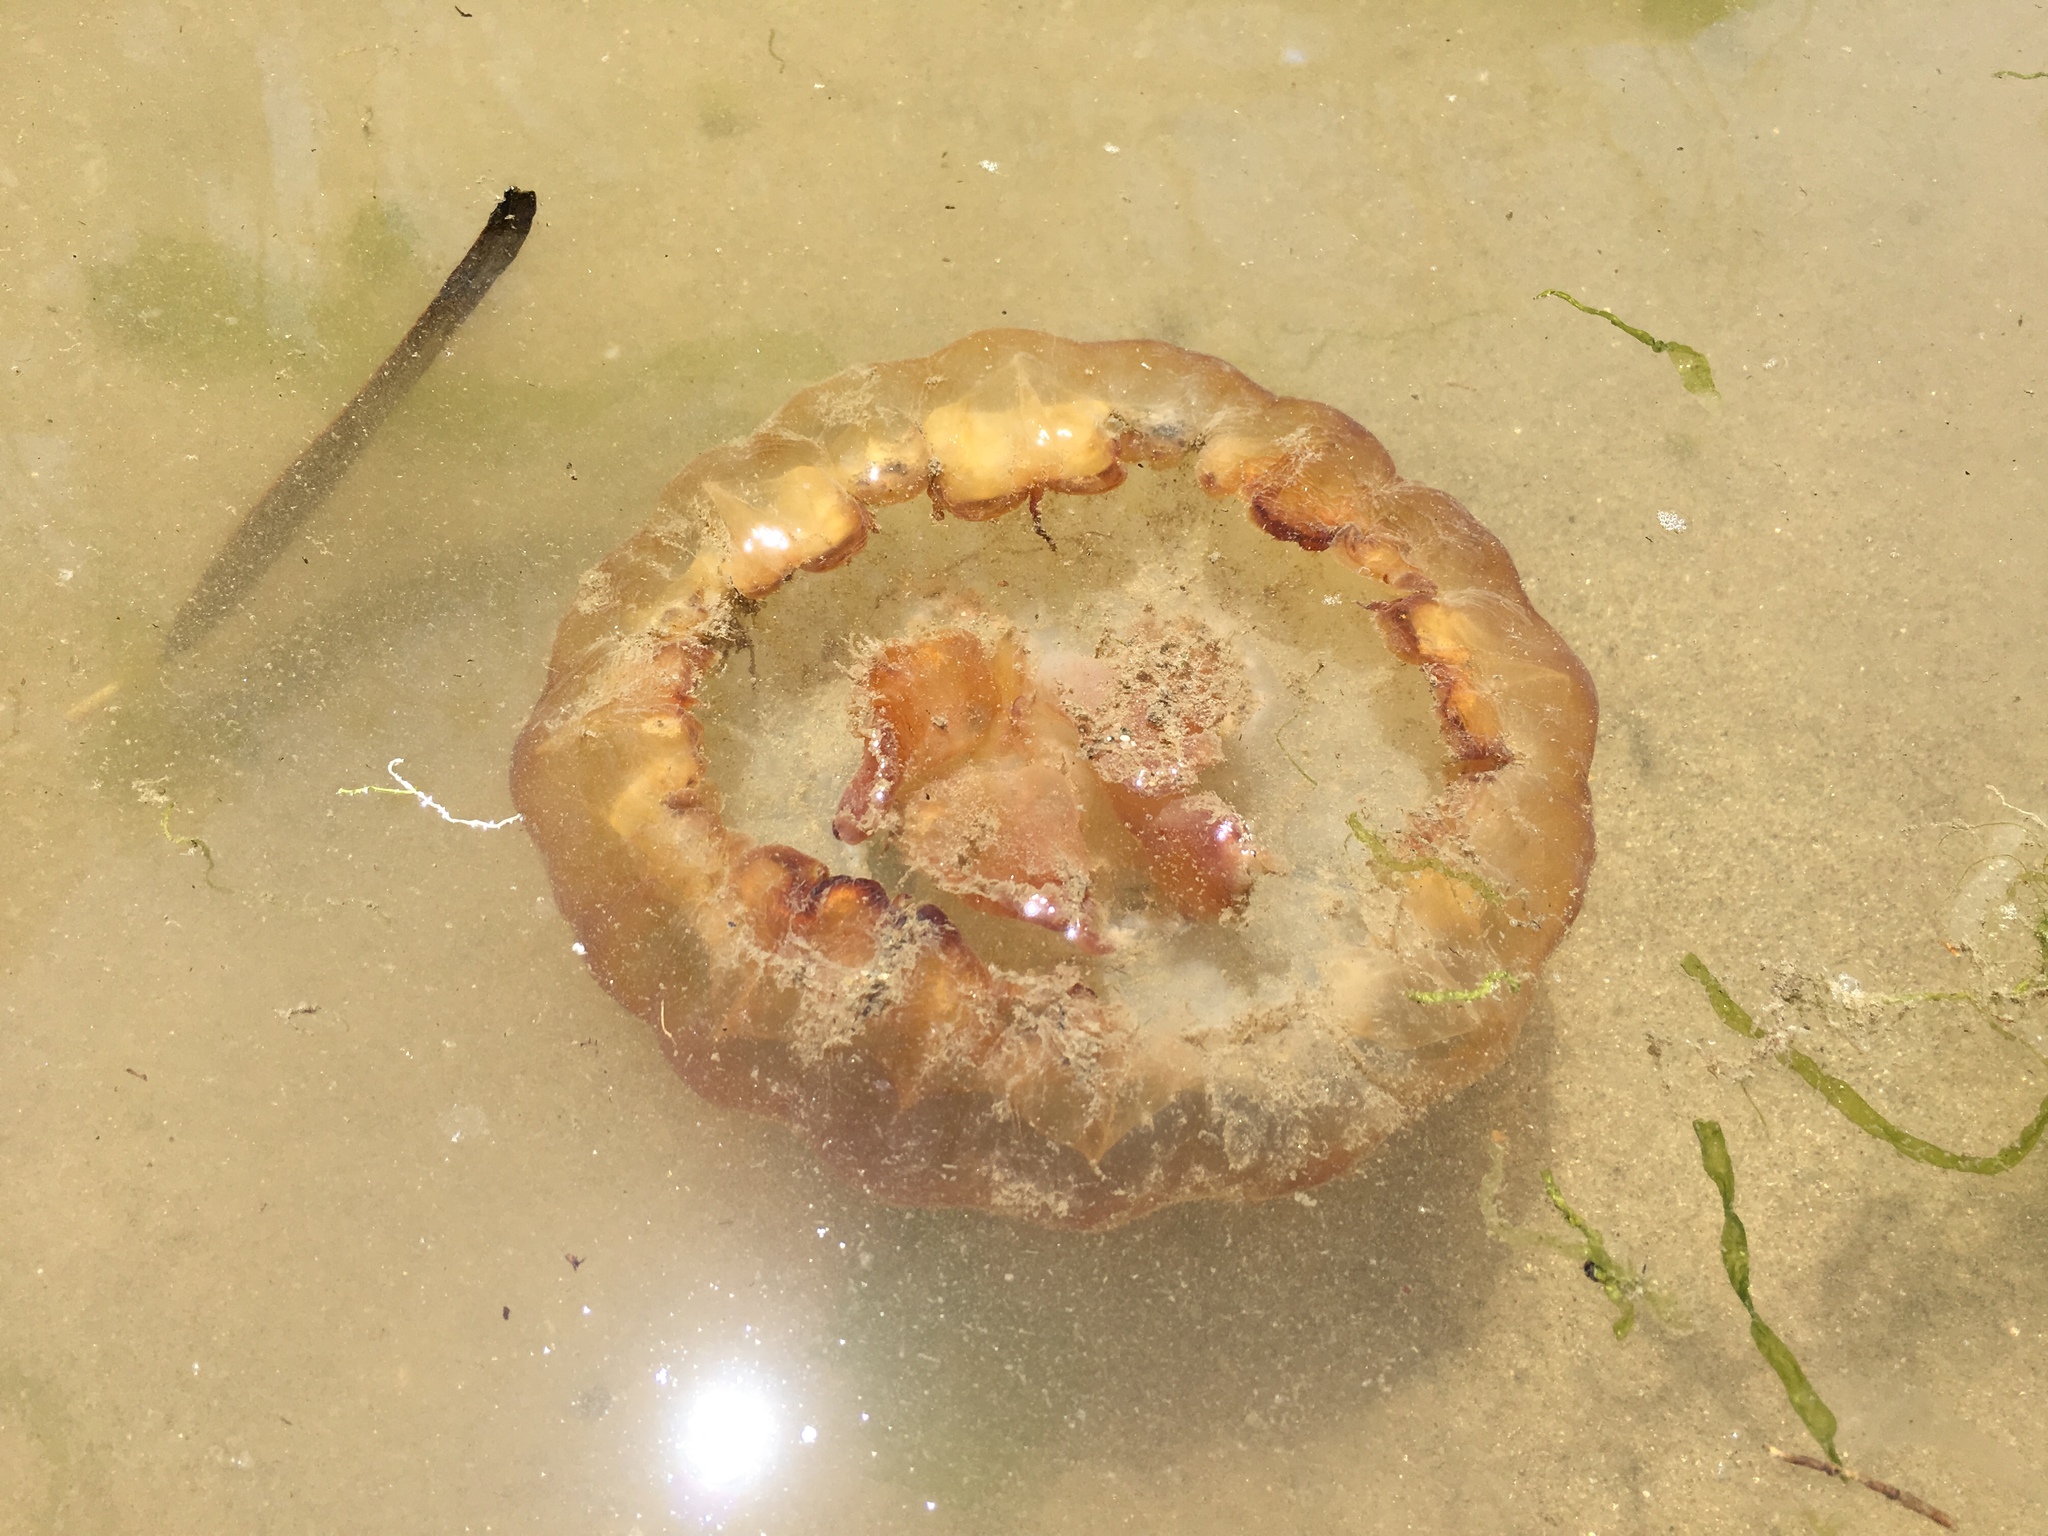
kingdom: Animalia
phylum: Cnidaria
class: Scyphozoa
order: Semaeostomeae
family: Pelagiidae
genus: Chrysaora
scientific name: Chrysaora fuscescens
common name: Sea nettle
